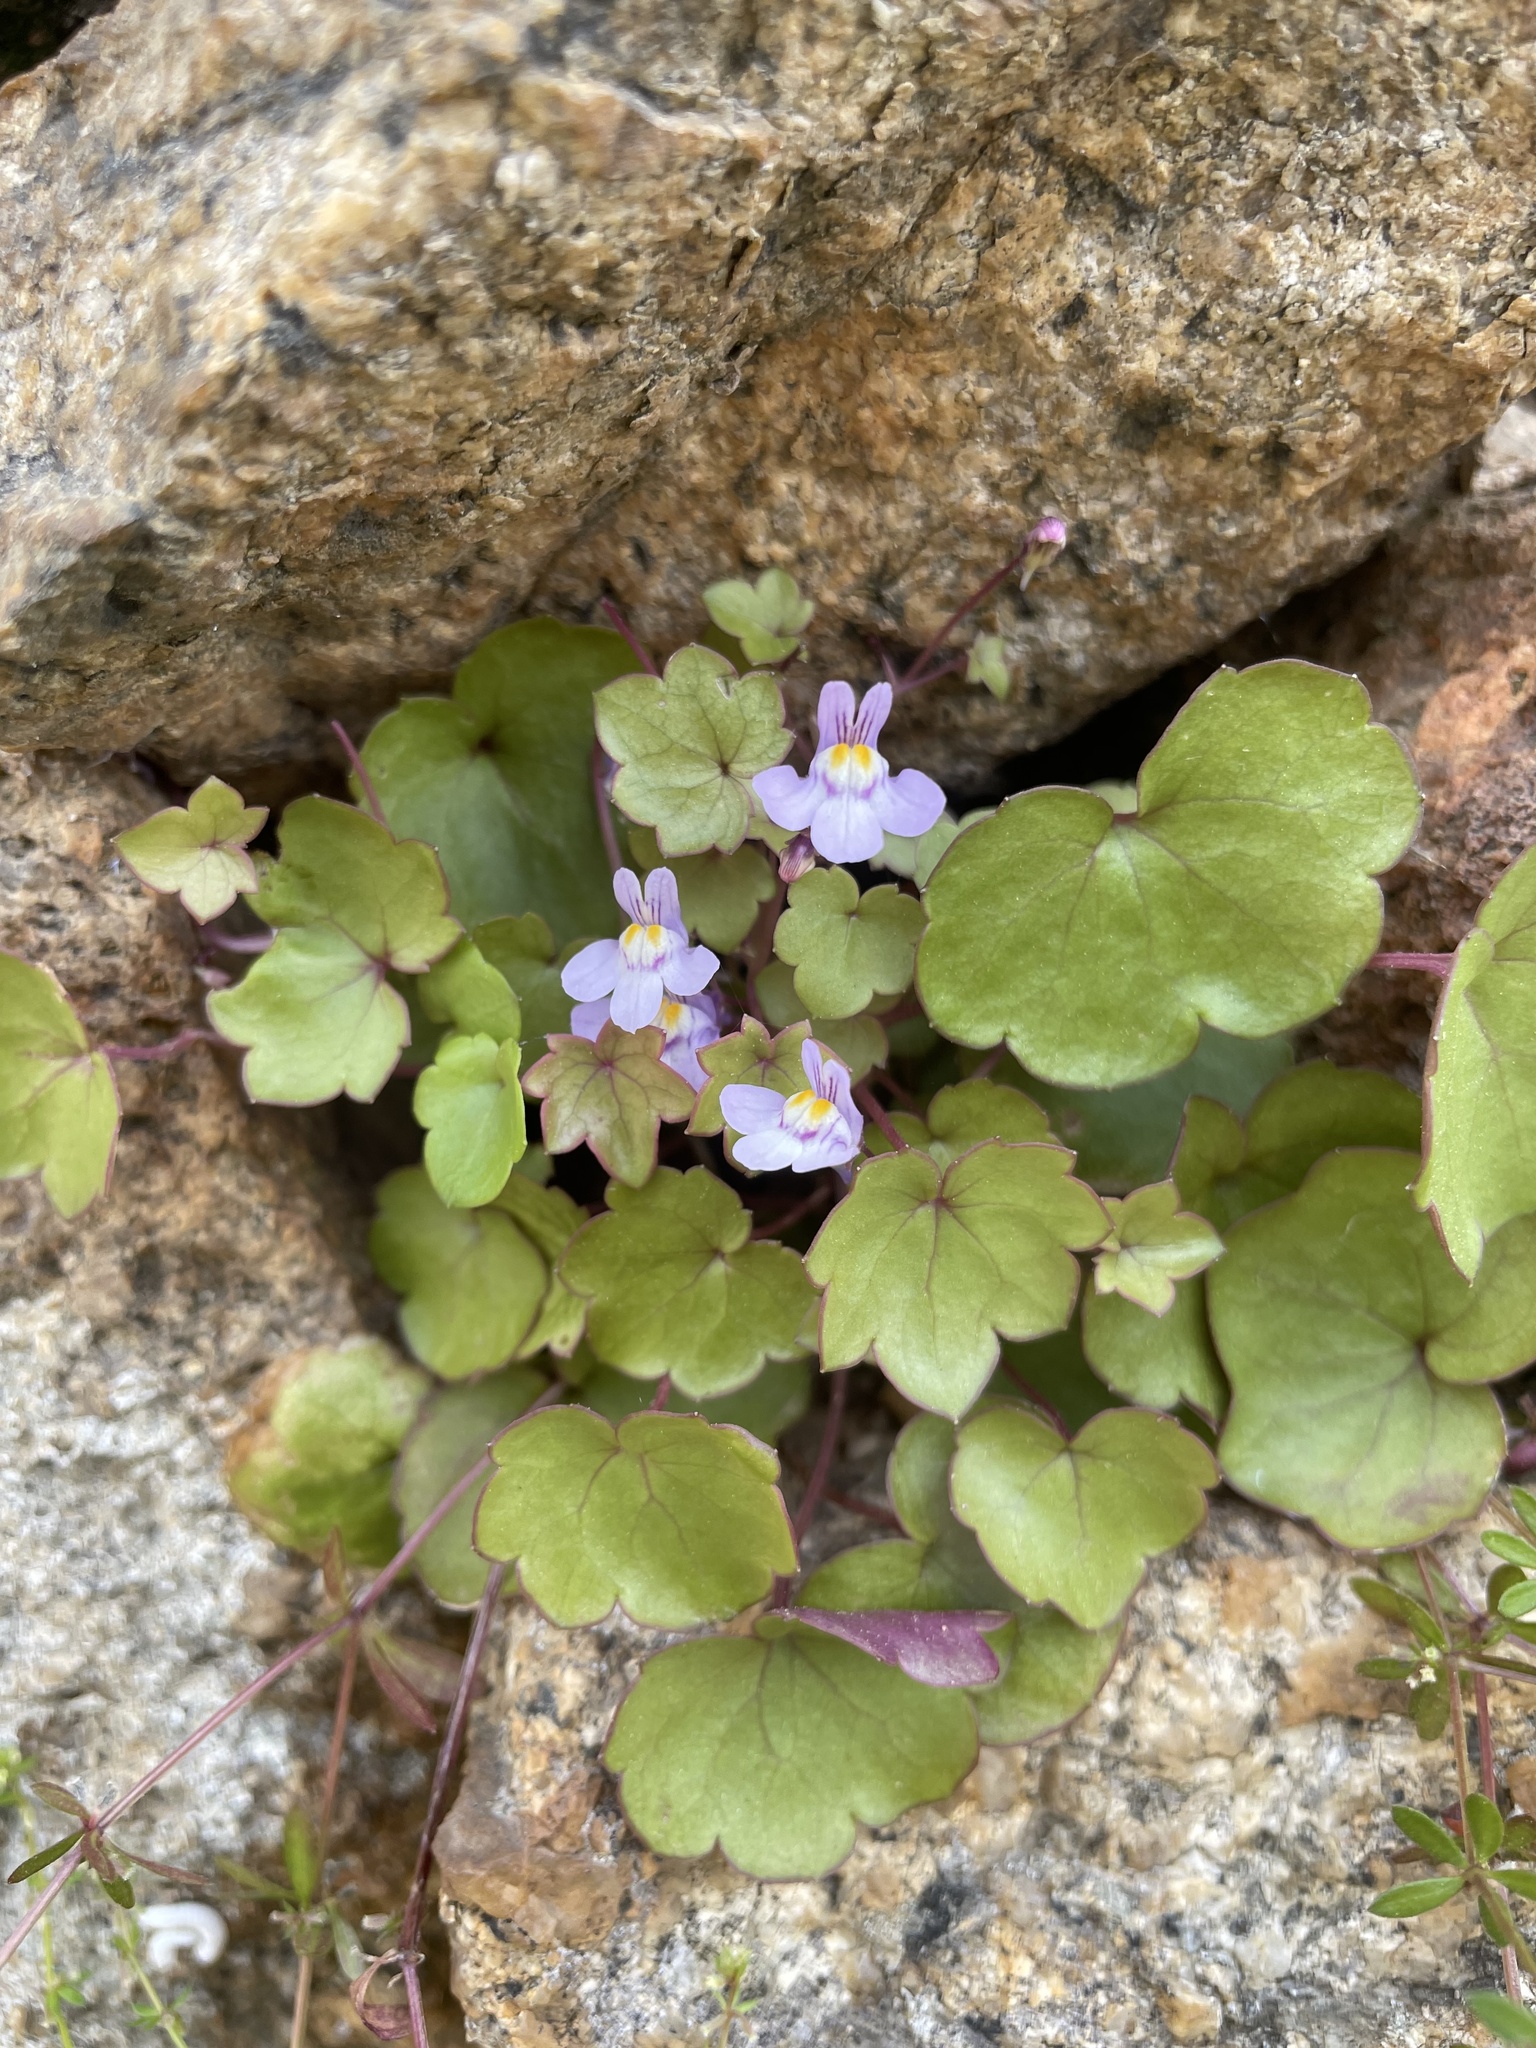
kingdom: Plantae
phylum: Tracheophyta
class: Magnoliopsida
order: Lamiales
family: Plantaginaceae
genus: Cymbalaria
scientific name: Cymbalaria muralis
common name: Ivy-leaved toadflax
